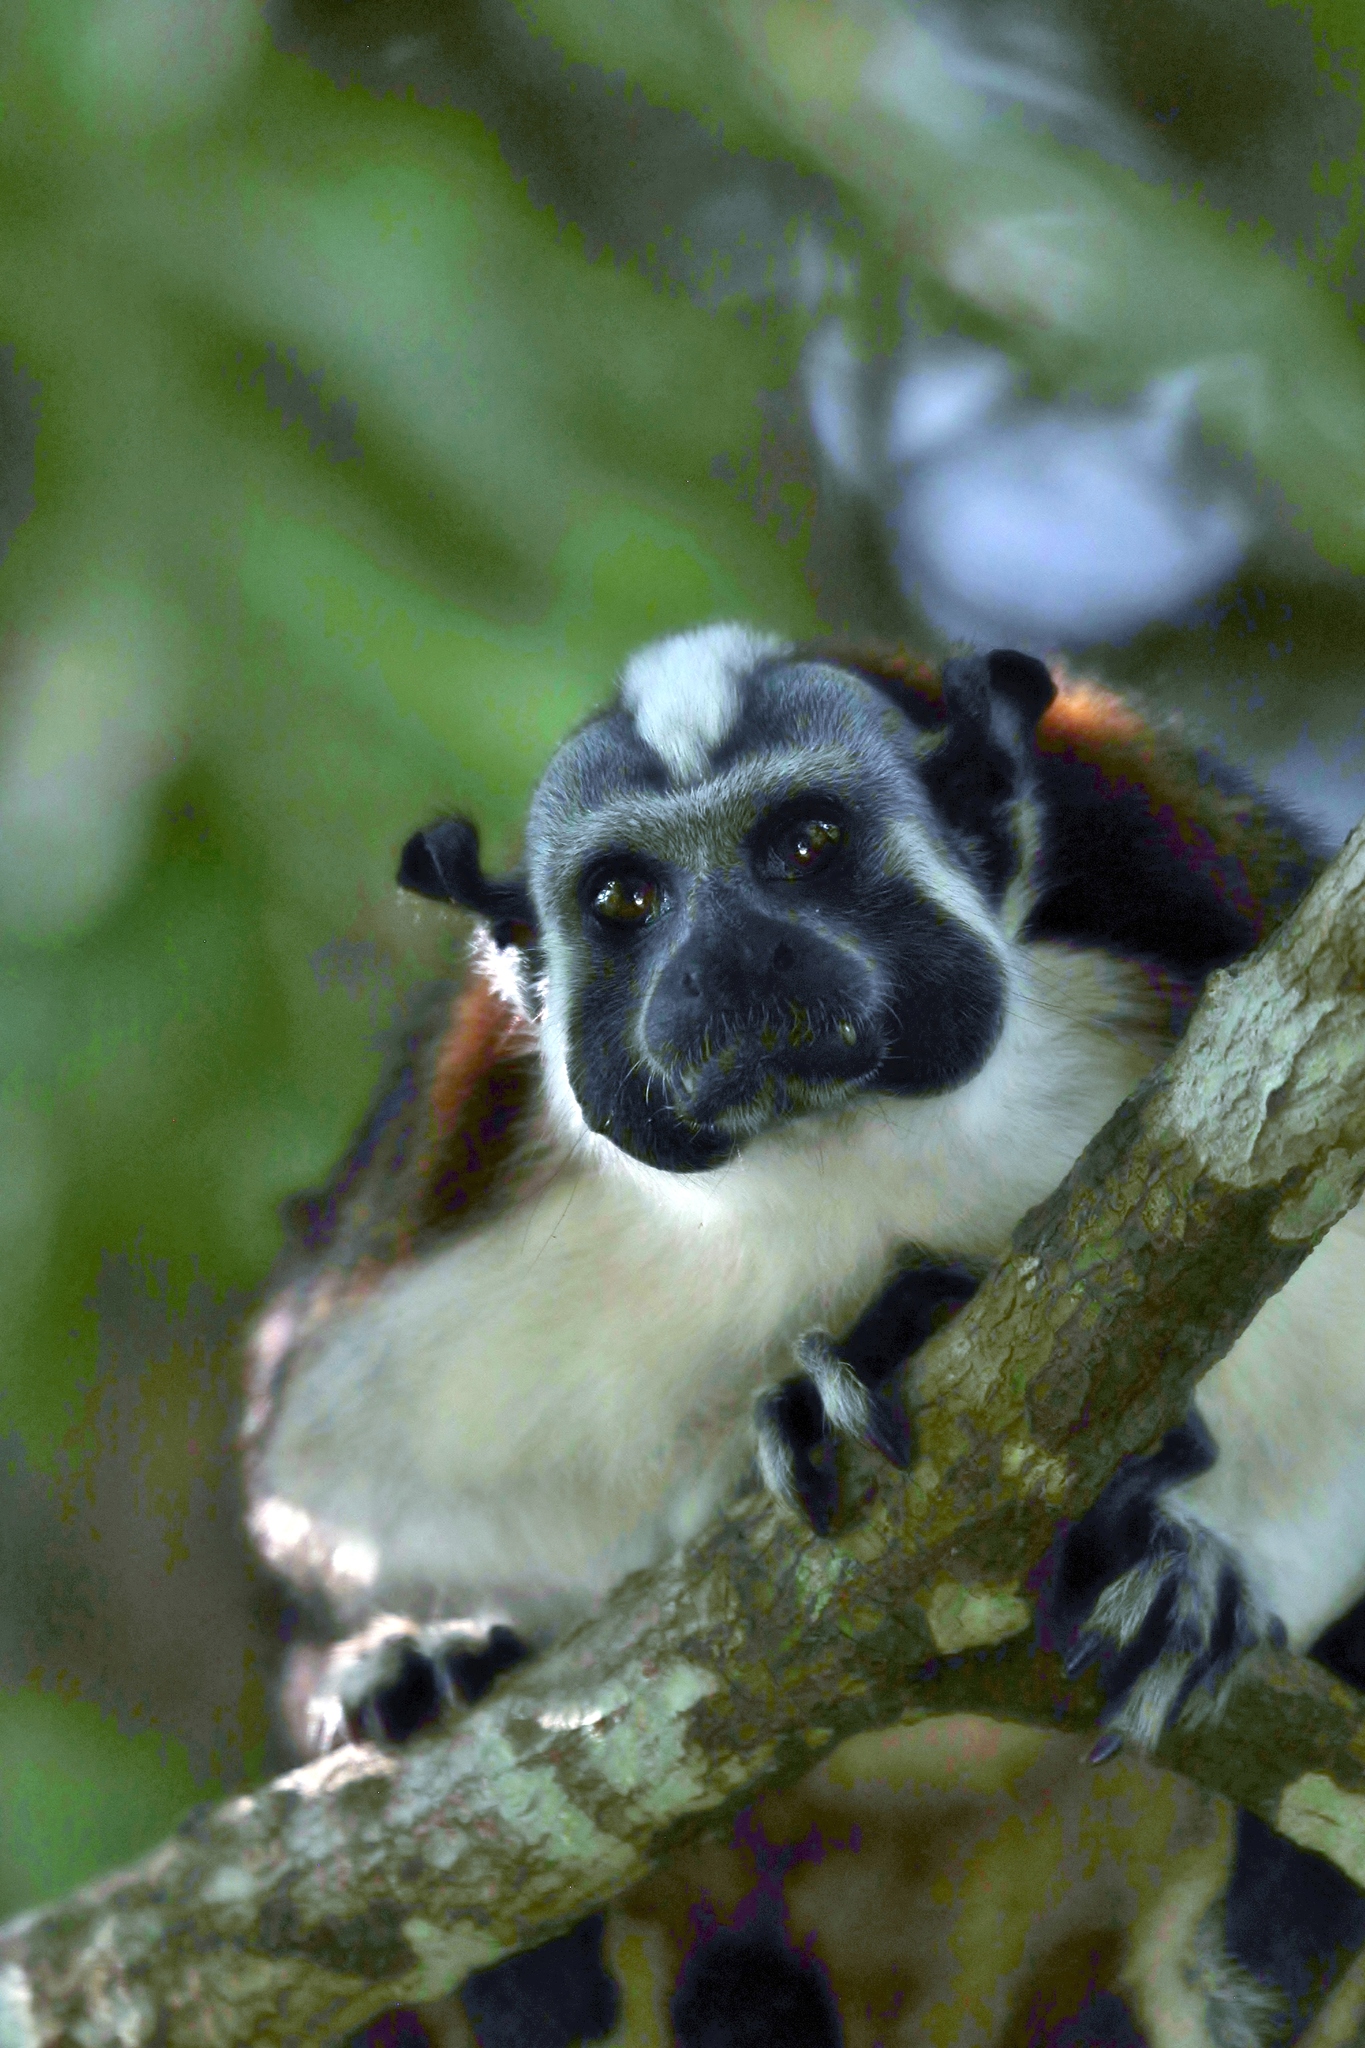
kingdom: Animalia
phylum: Chordata
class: Mammalia
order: Primates
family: Callitrichidae
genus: Saguinus
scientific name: Saguinus geoffroyi
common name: Geoffroy s tamarin
